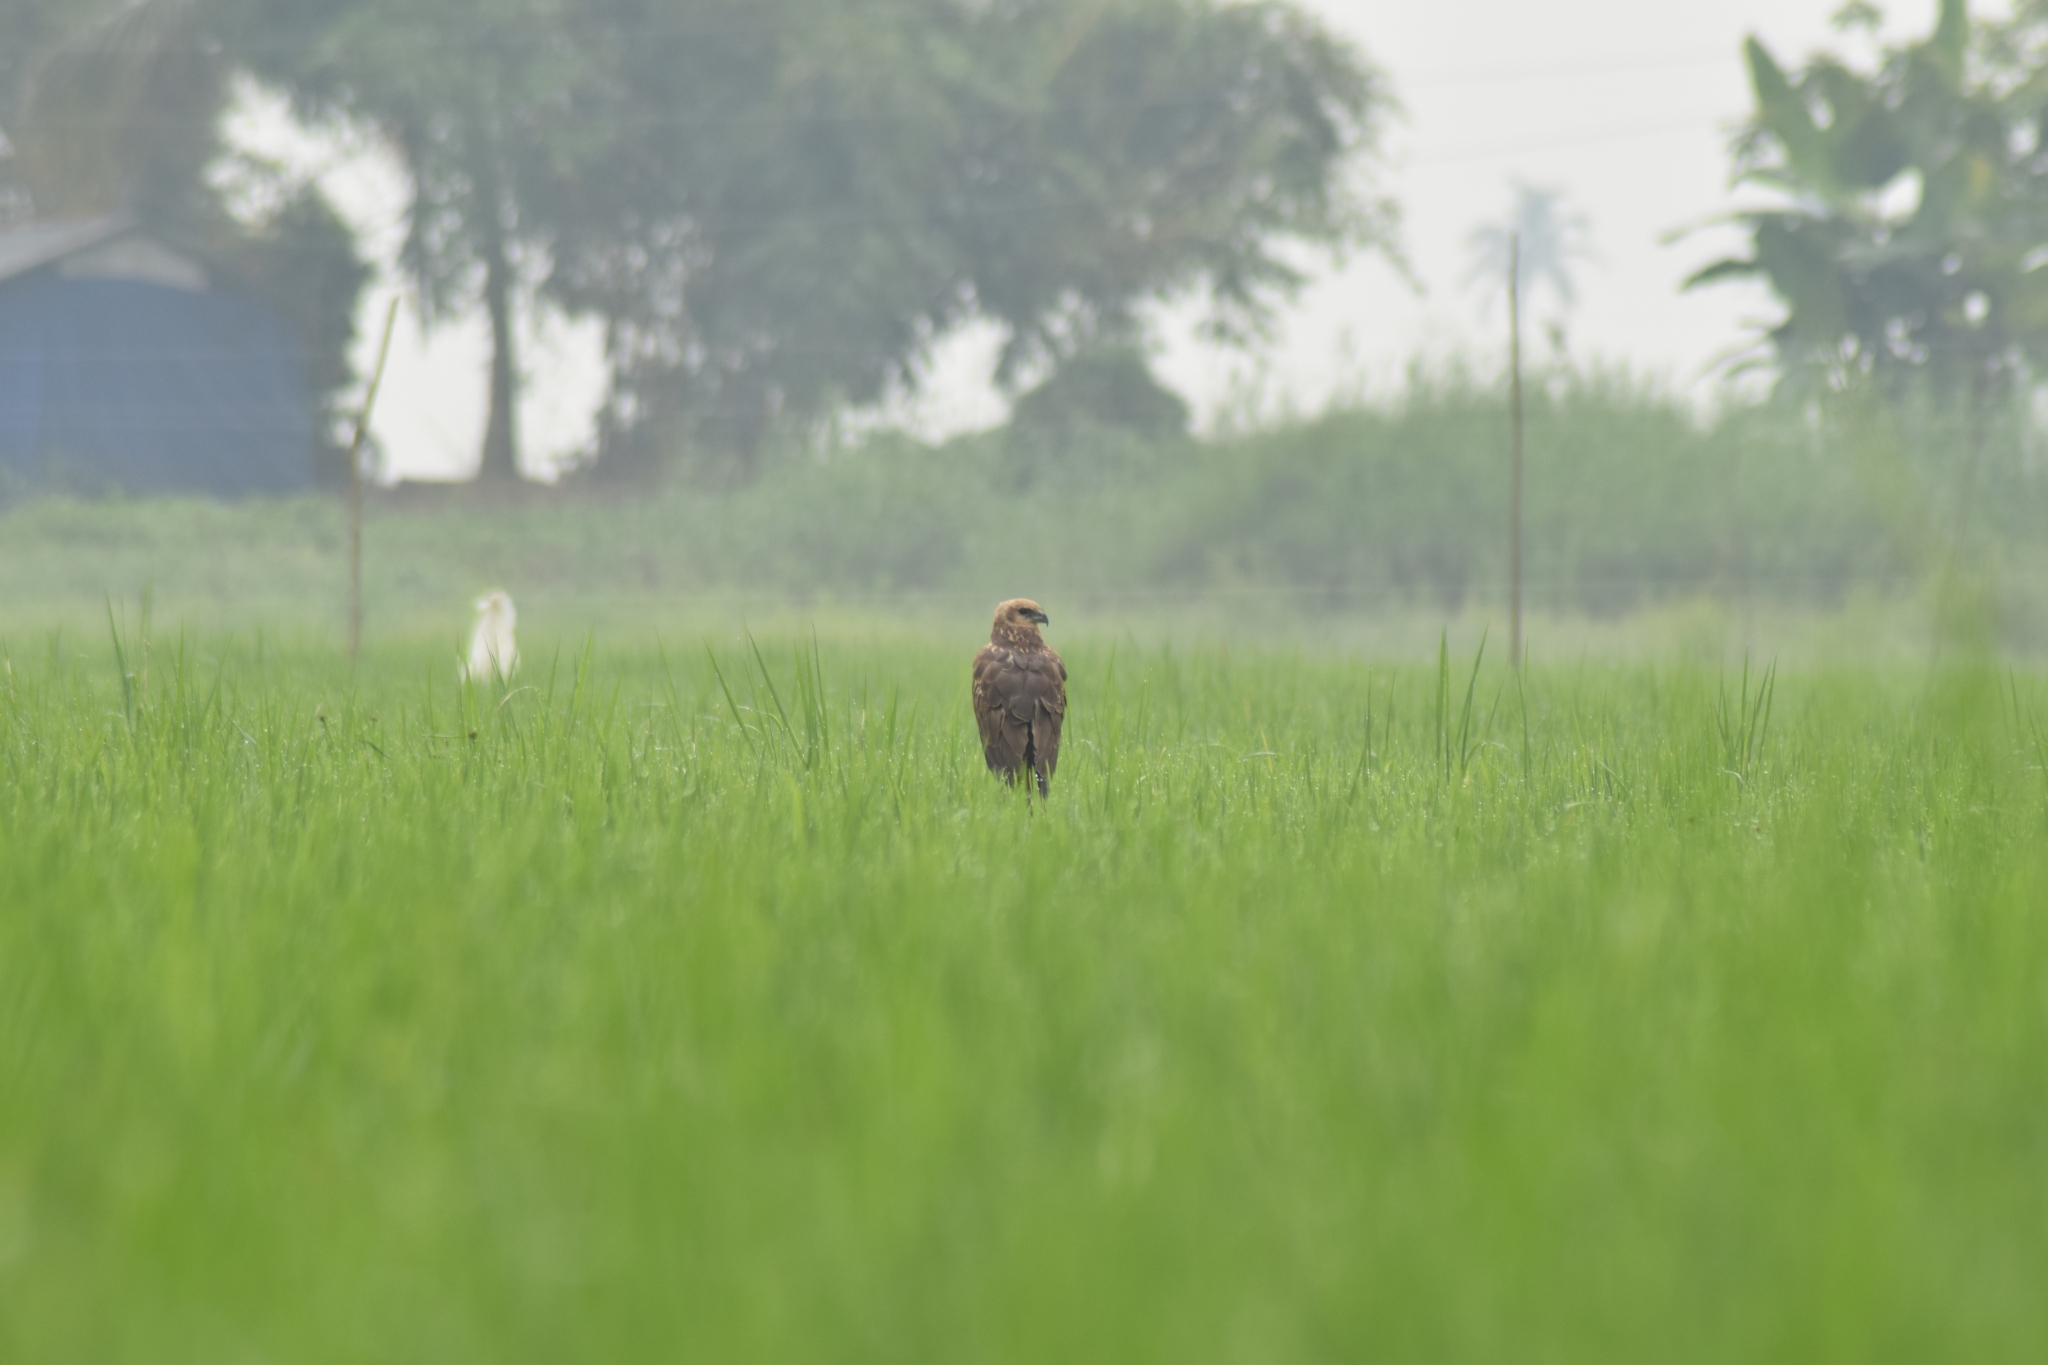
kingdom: Animalia
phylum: Chordata
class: Aves
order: Accipitriformes
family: Accipitridae
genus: Circus
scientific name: Circus aeruginosus
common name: Western marsh harrier
